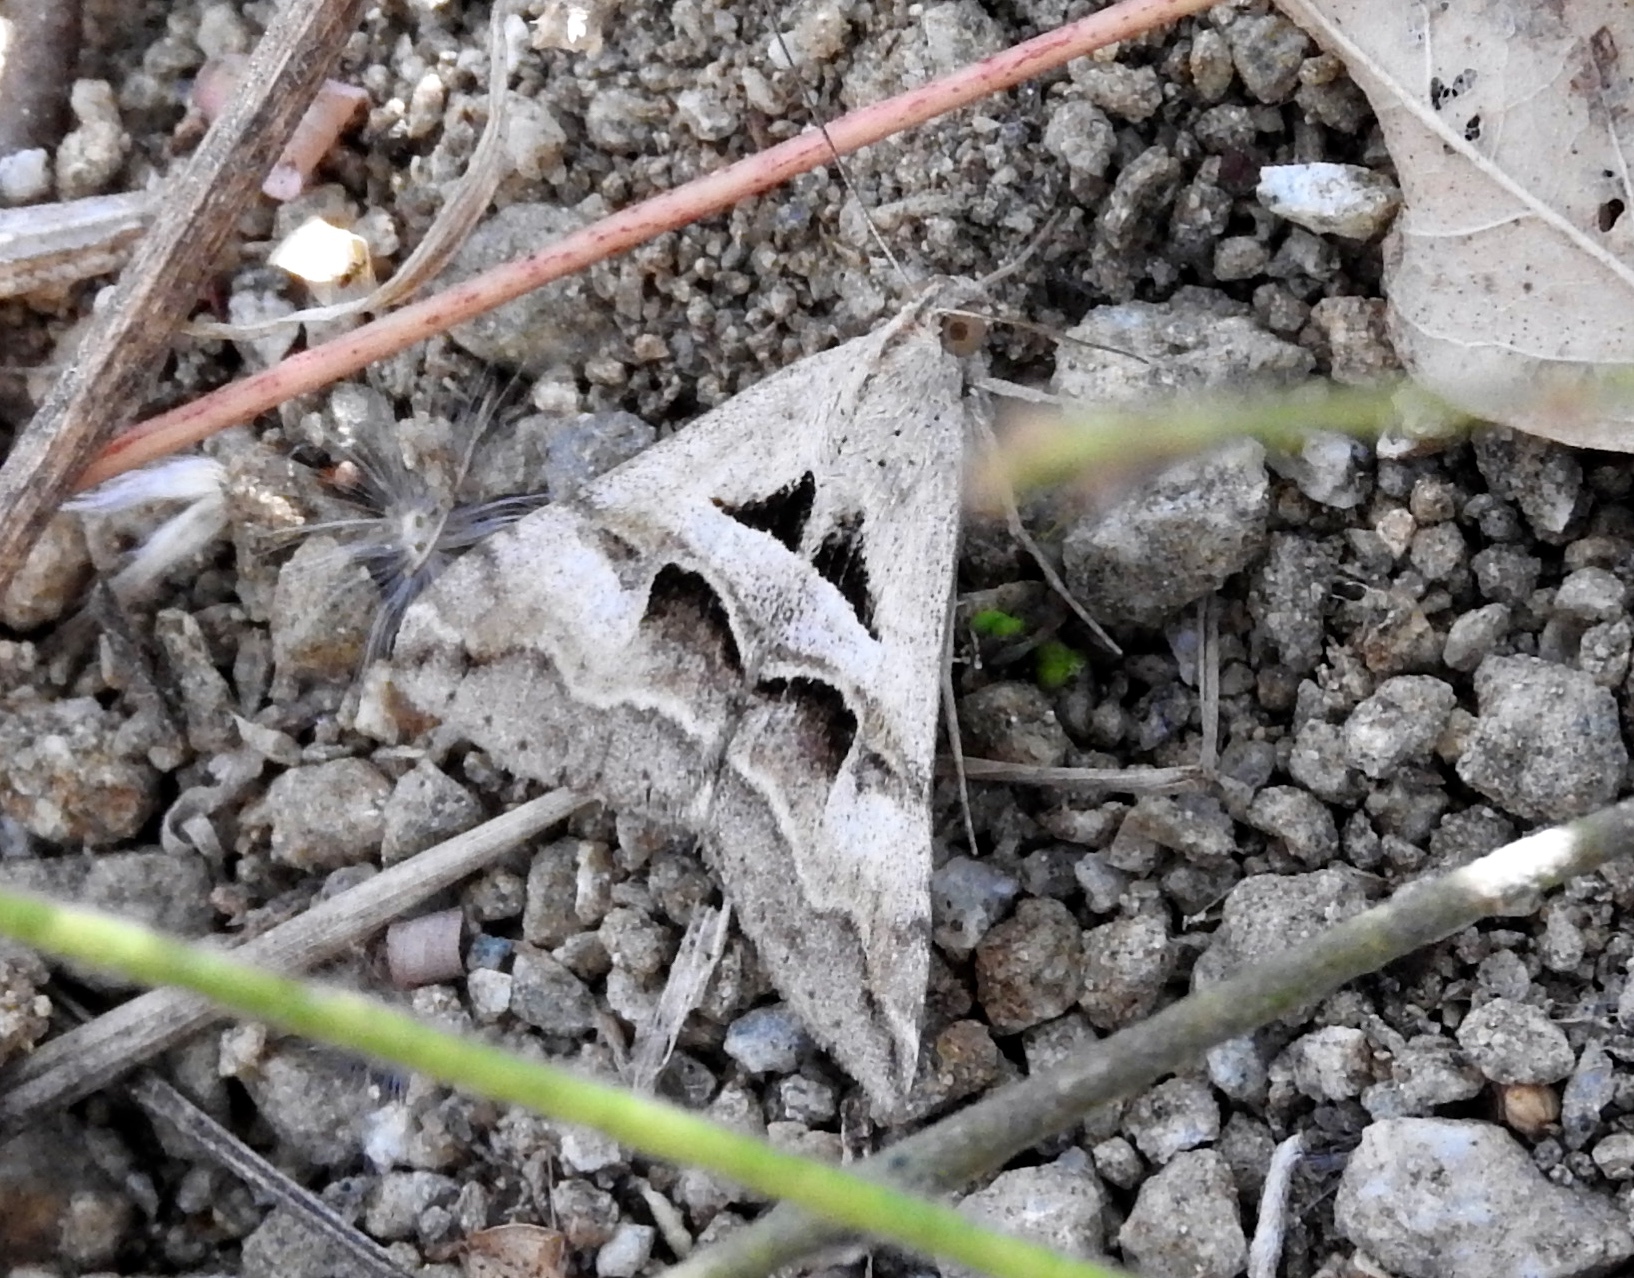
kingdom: Animalia
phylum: Arthropoda
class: Insecta
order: Lepidoptera
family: Erebidae
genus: Melipotis
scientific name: Melipotis cellaris
